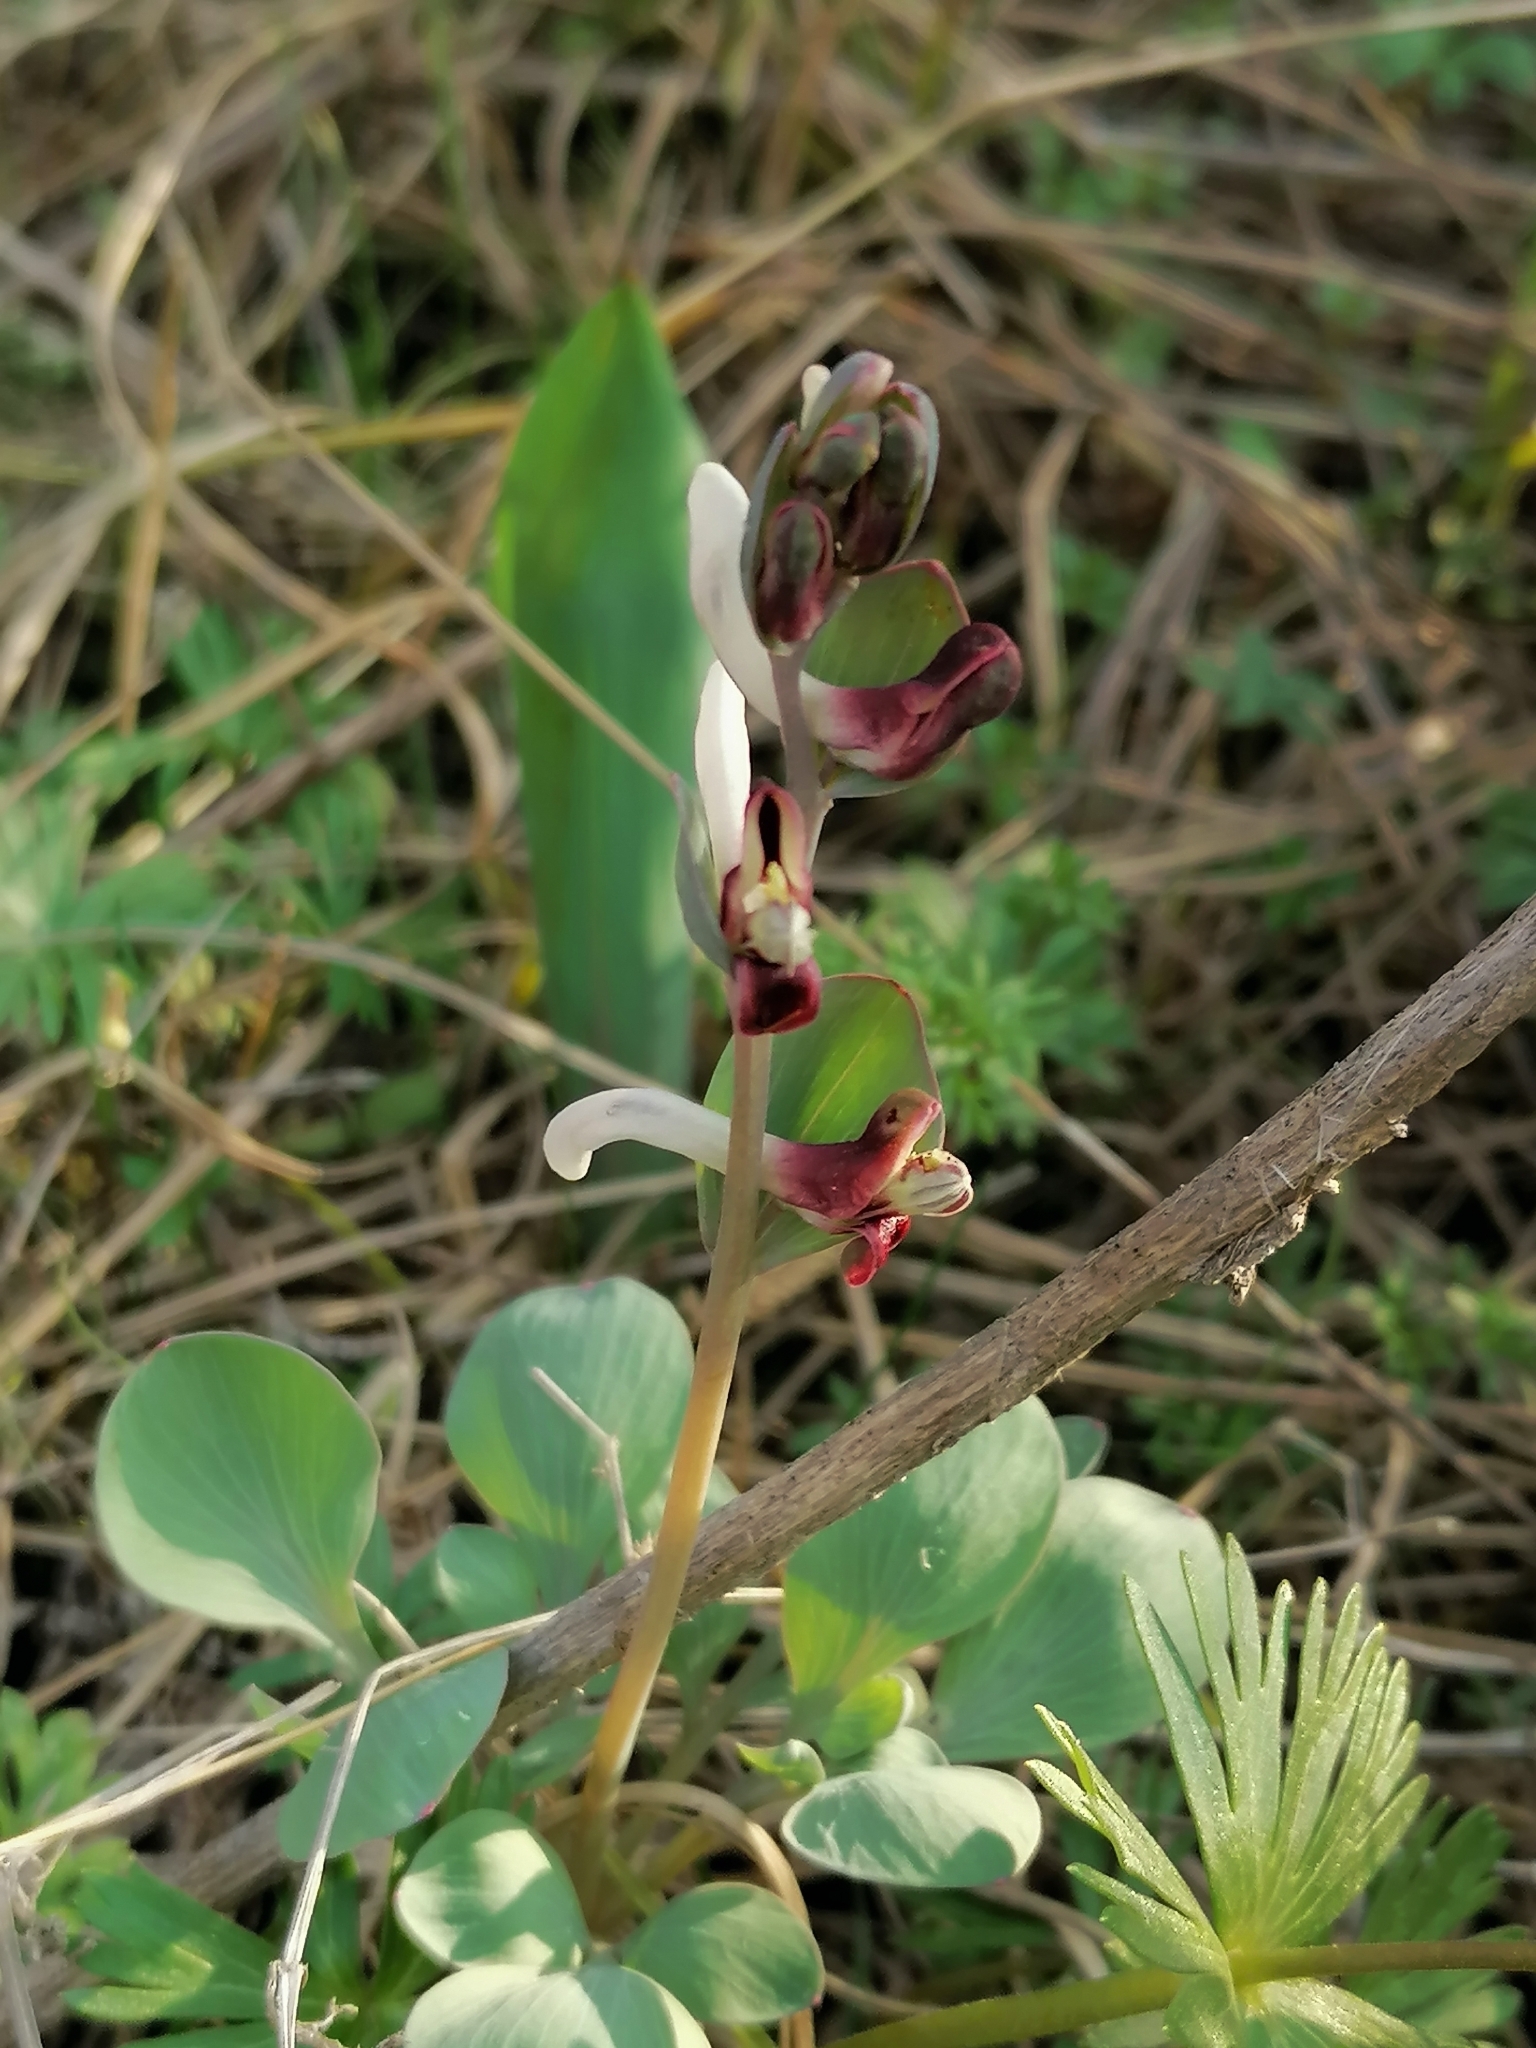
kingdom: Plantae
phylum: Tracheophyta
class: Magnoliopsida
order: Ranunculales
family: Papaveraceae
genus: Corydalis
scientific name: Corydalis ledebouriana
